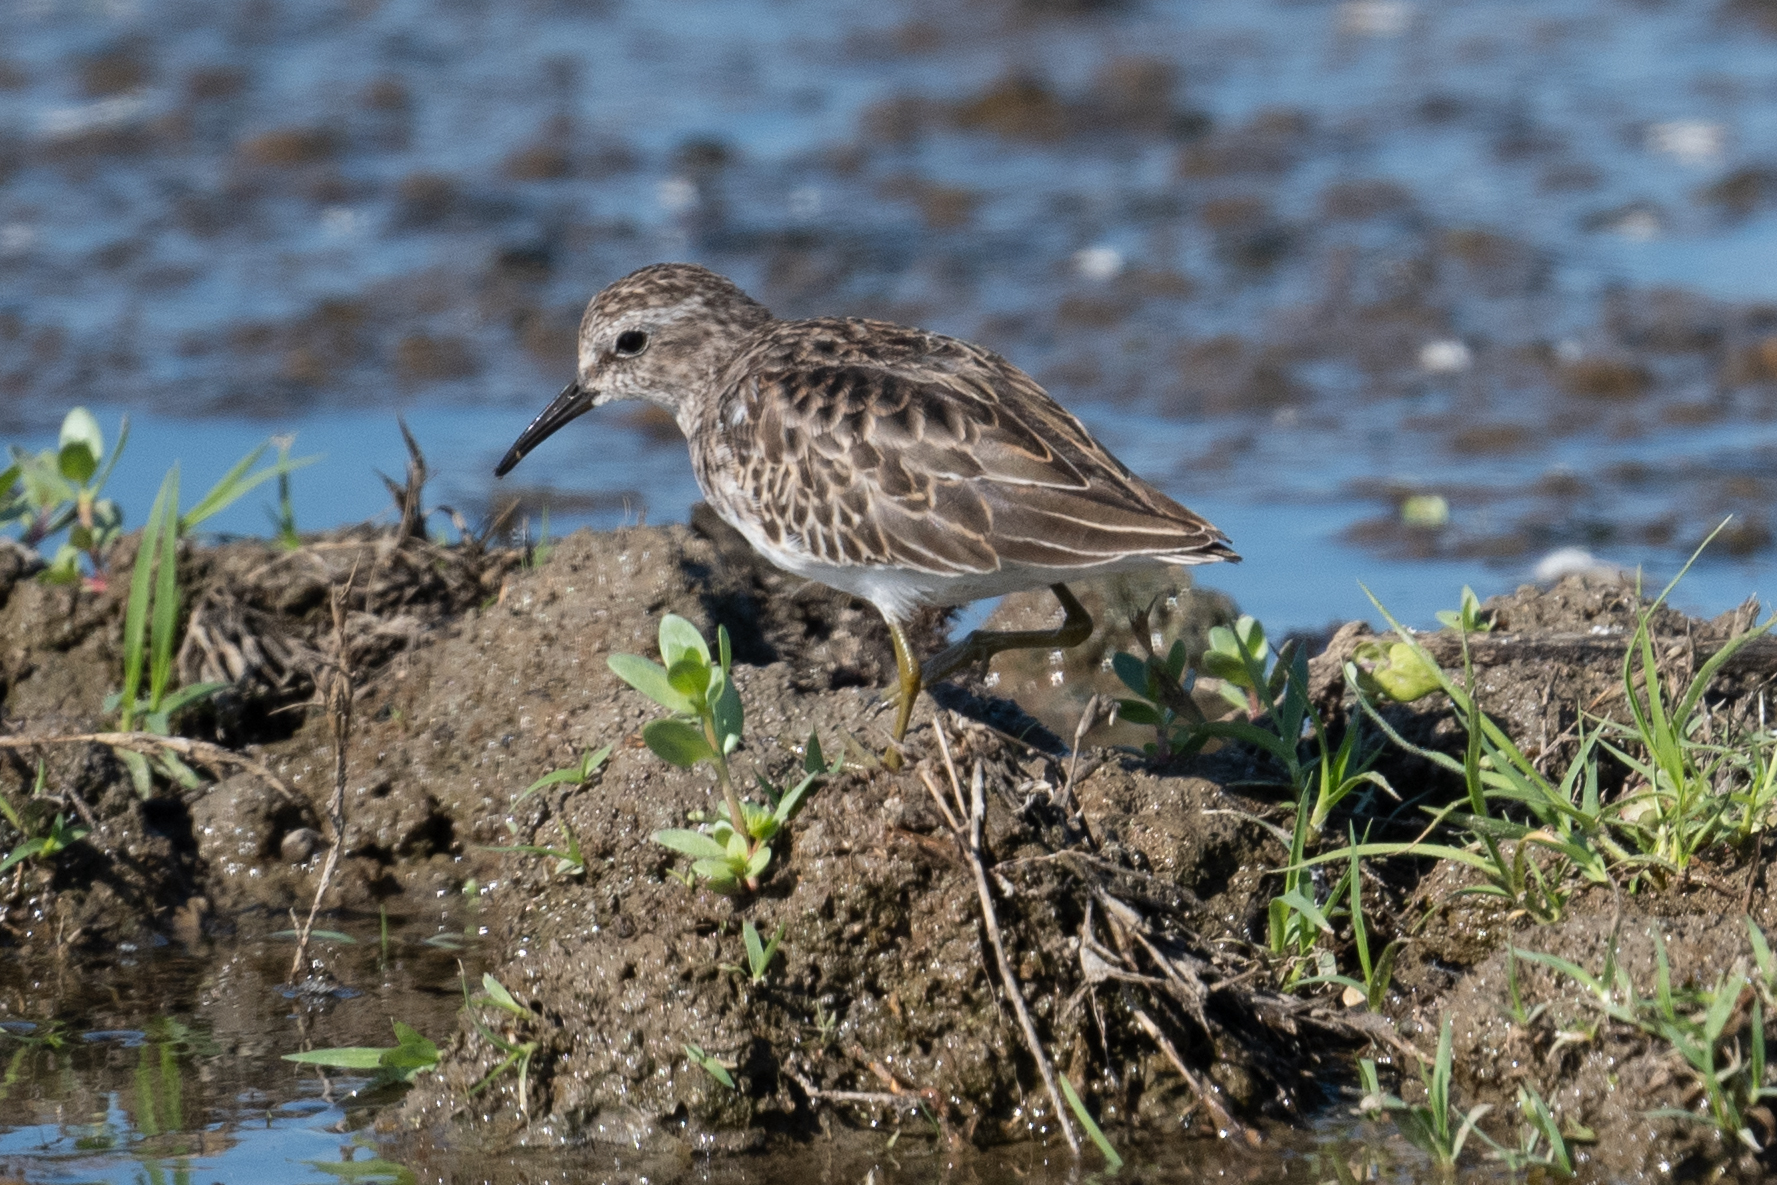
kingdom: Animalia
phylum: Chordata
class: Aves
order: Charadriiformes
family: Scolopacidae
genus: Calidris
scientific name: Calidris minutilla
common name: Least sandpiper
